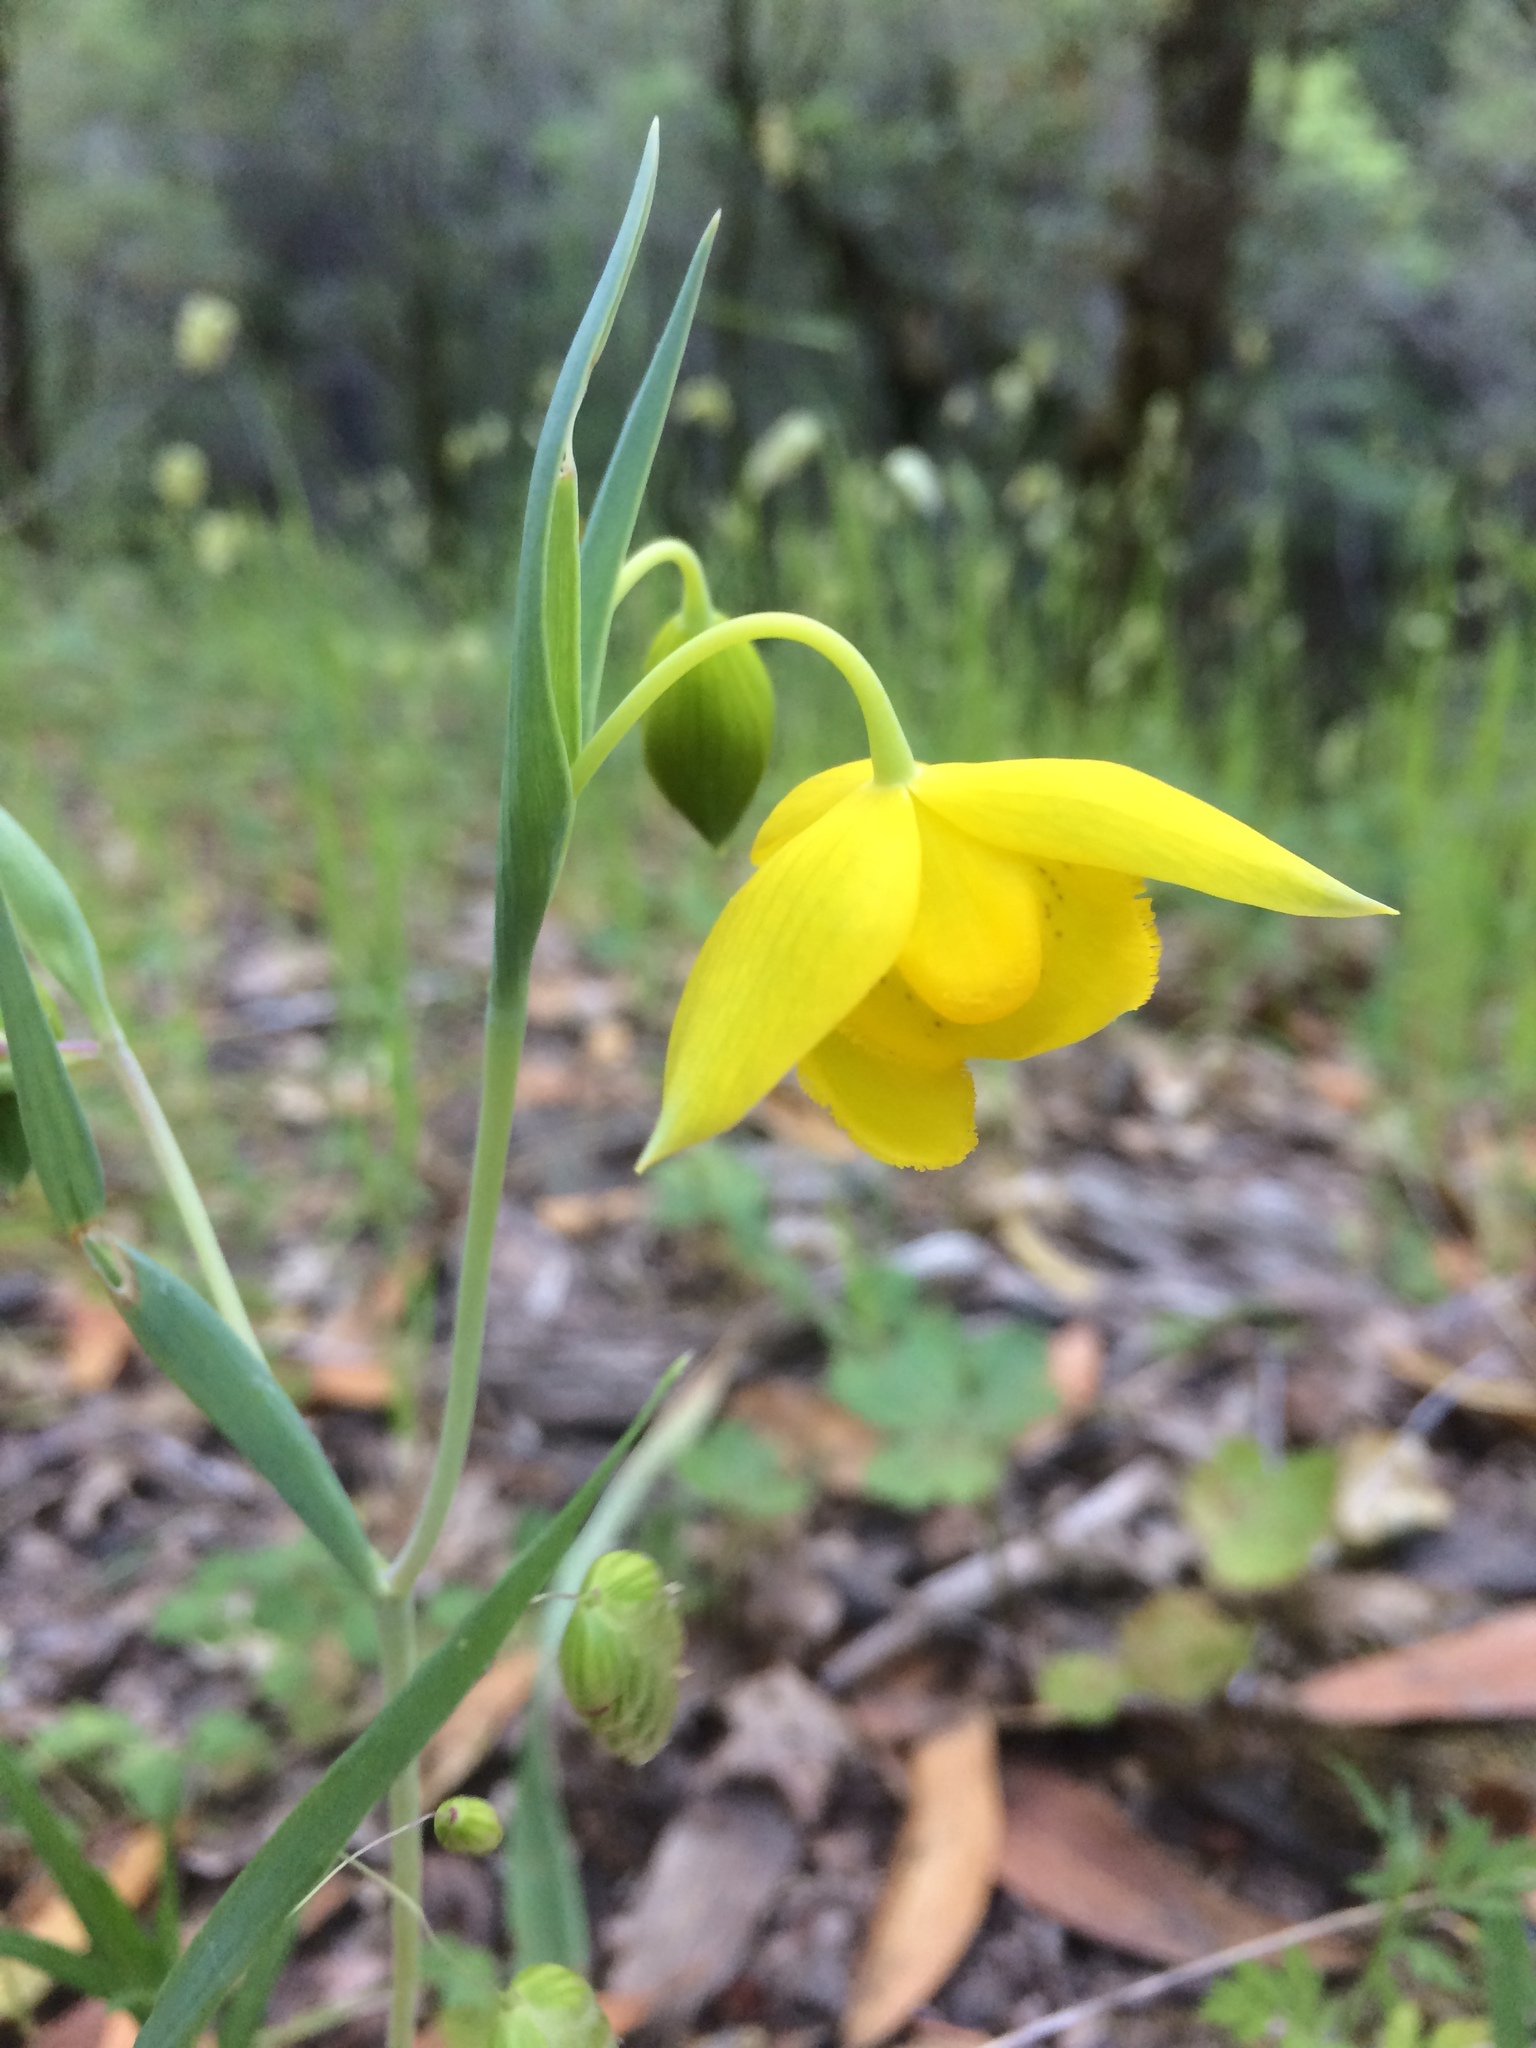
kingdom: Plantae
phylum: Tracheophyta
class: Liliopsida
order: Liliales
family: Liliaceae
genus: Calochortus
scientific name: Calochortus amabilis
